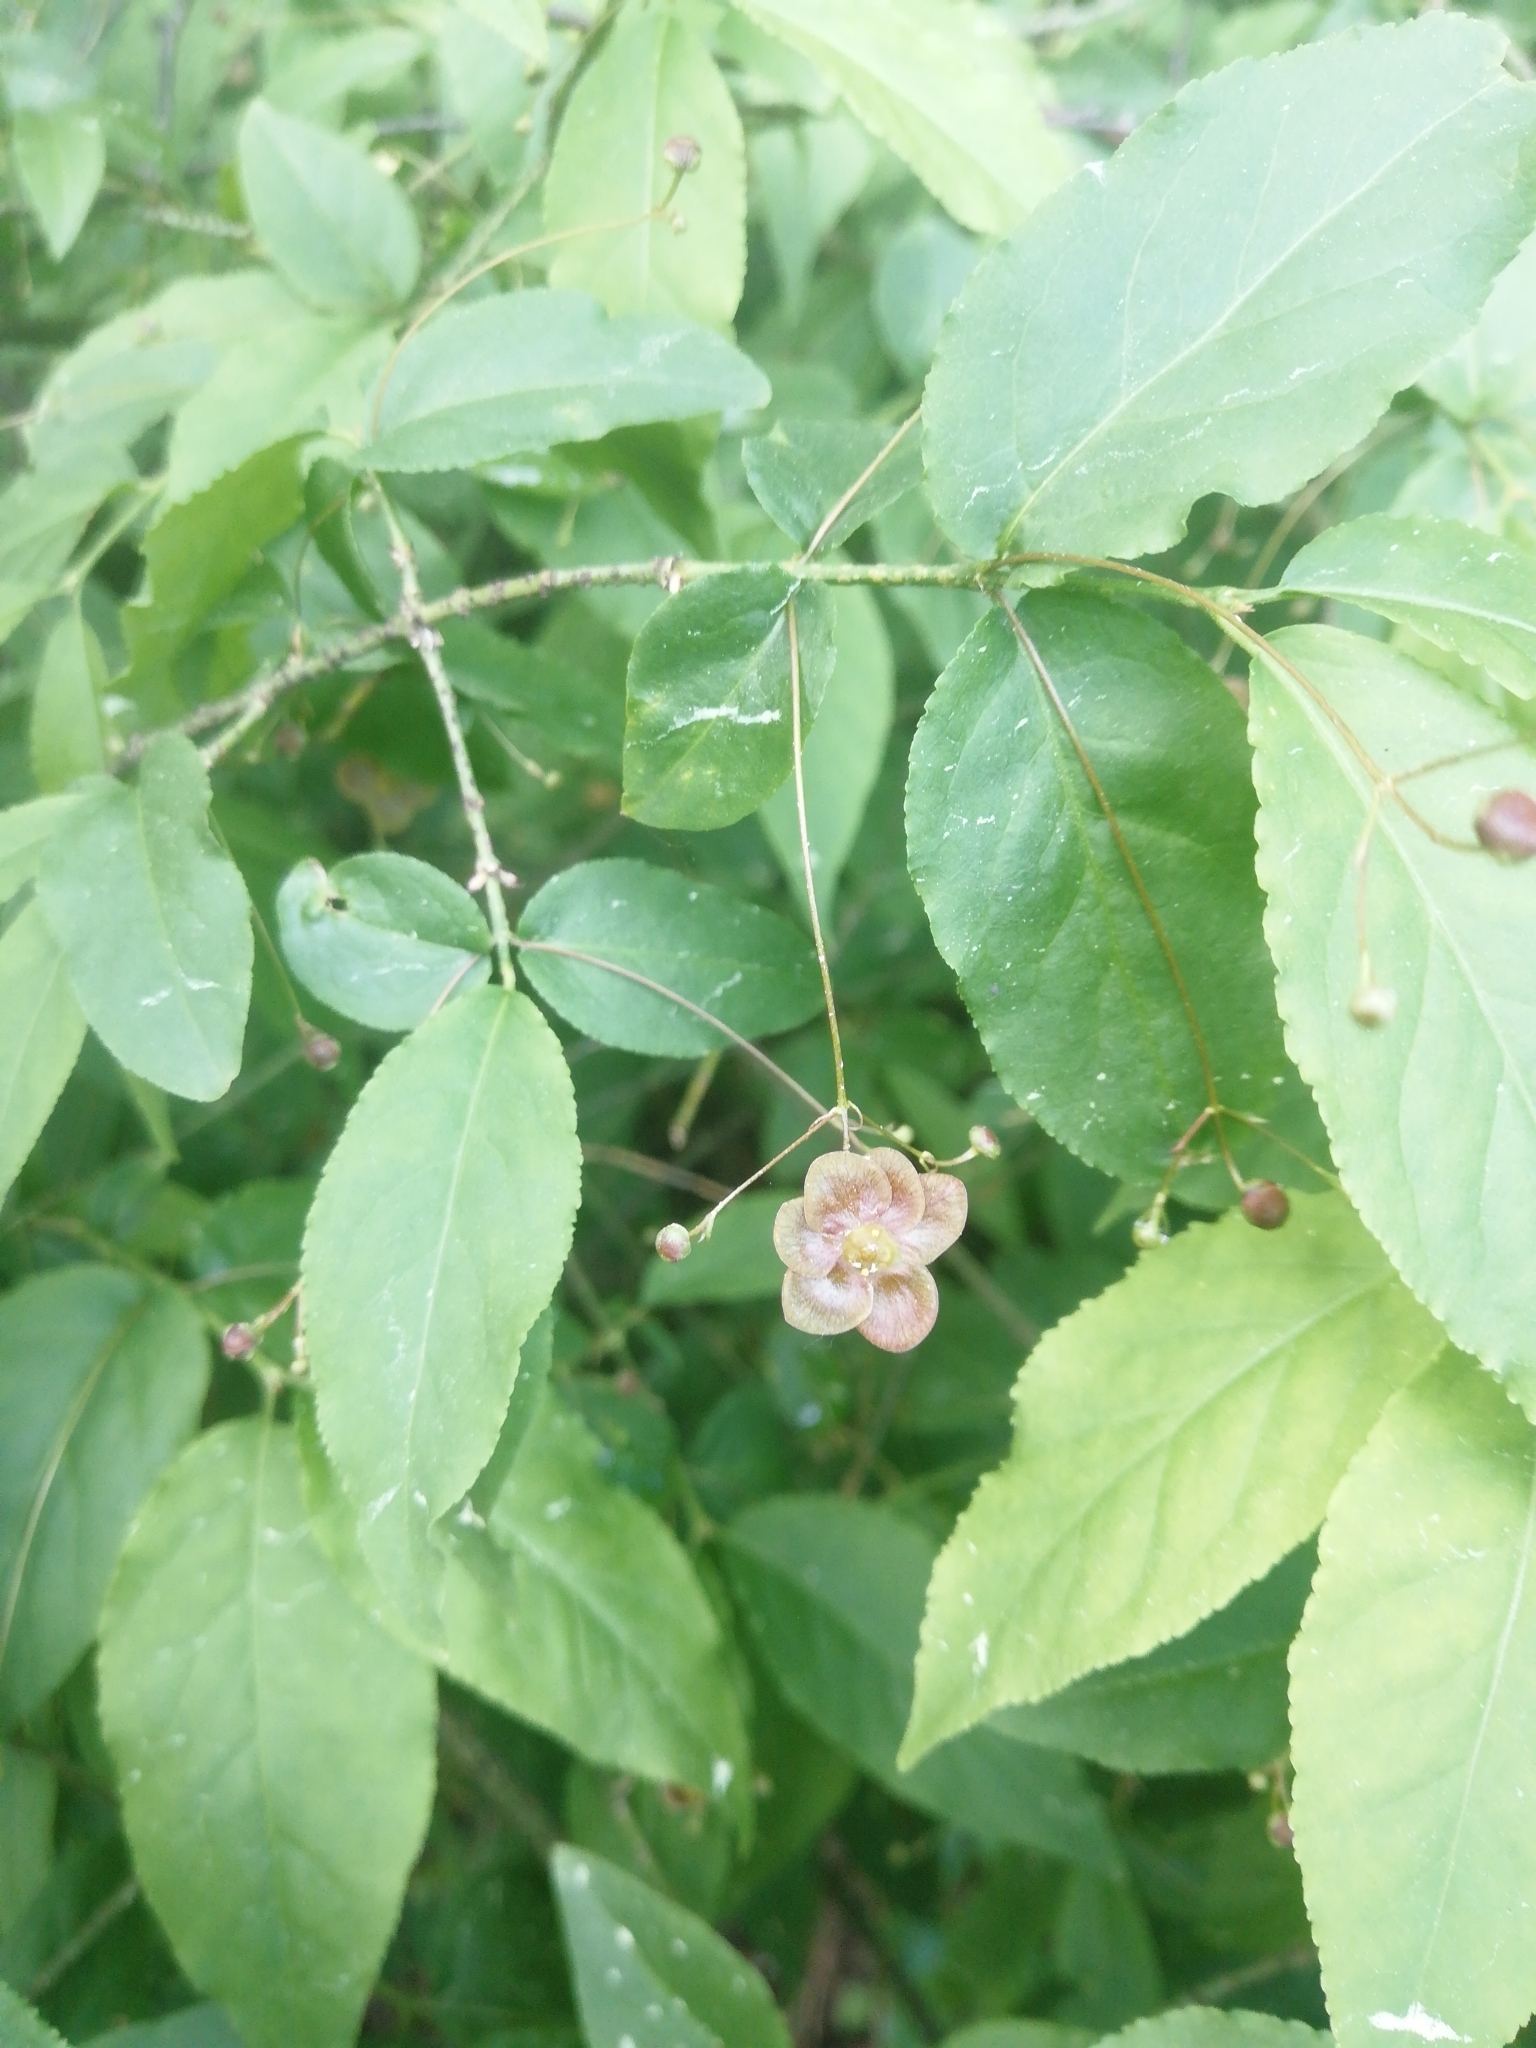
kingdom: Plantae
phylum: Tracheophyta
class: Magnoliopsida
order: Celastrales
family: Celastraceae
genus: Euonymus
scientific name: Euonymus verrucosus
